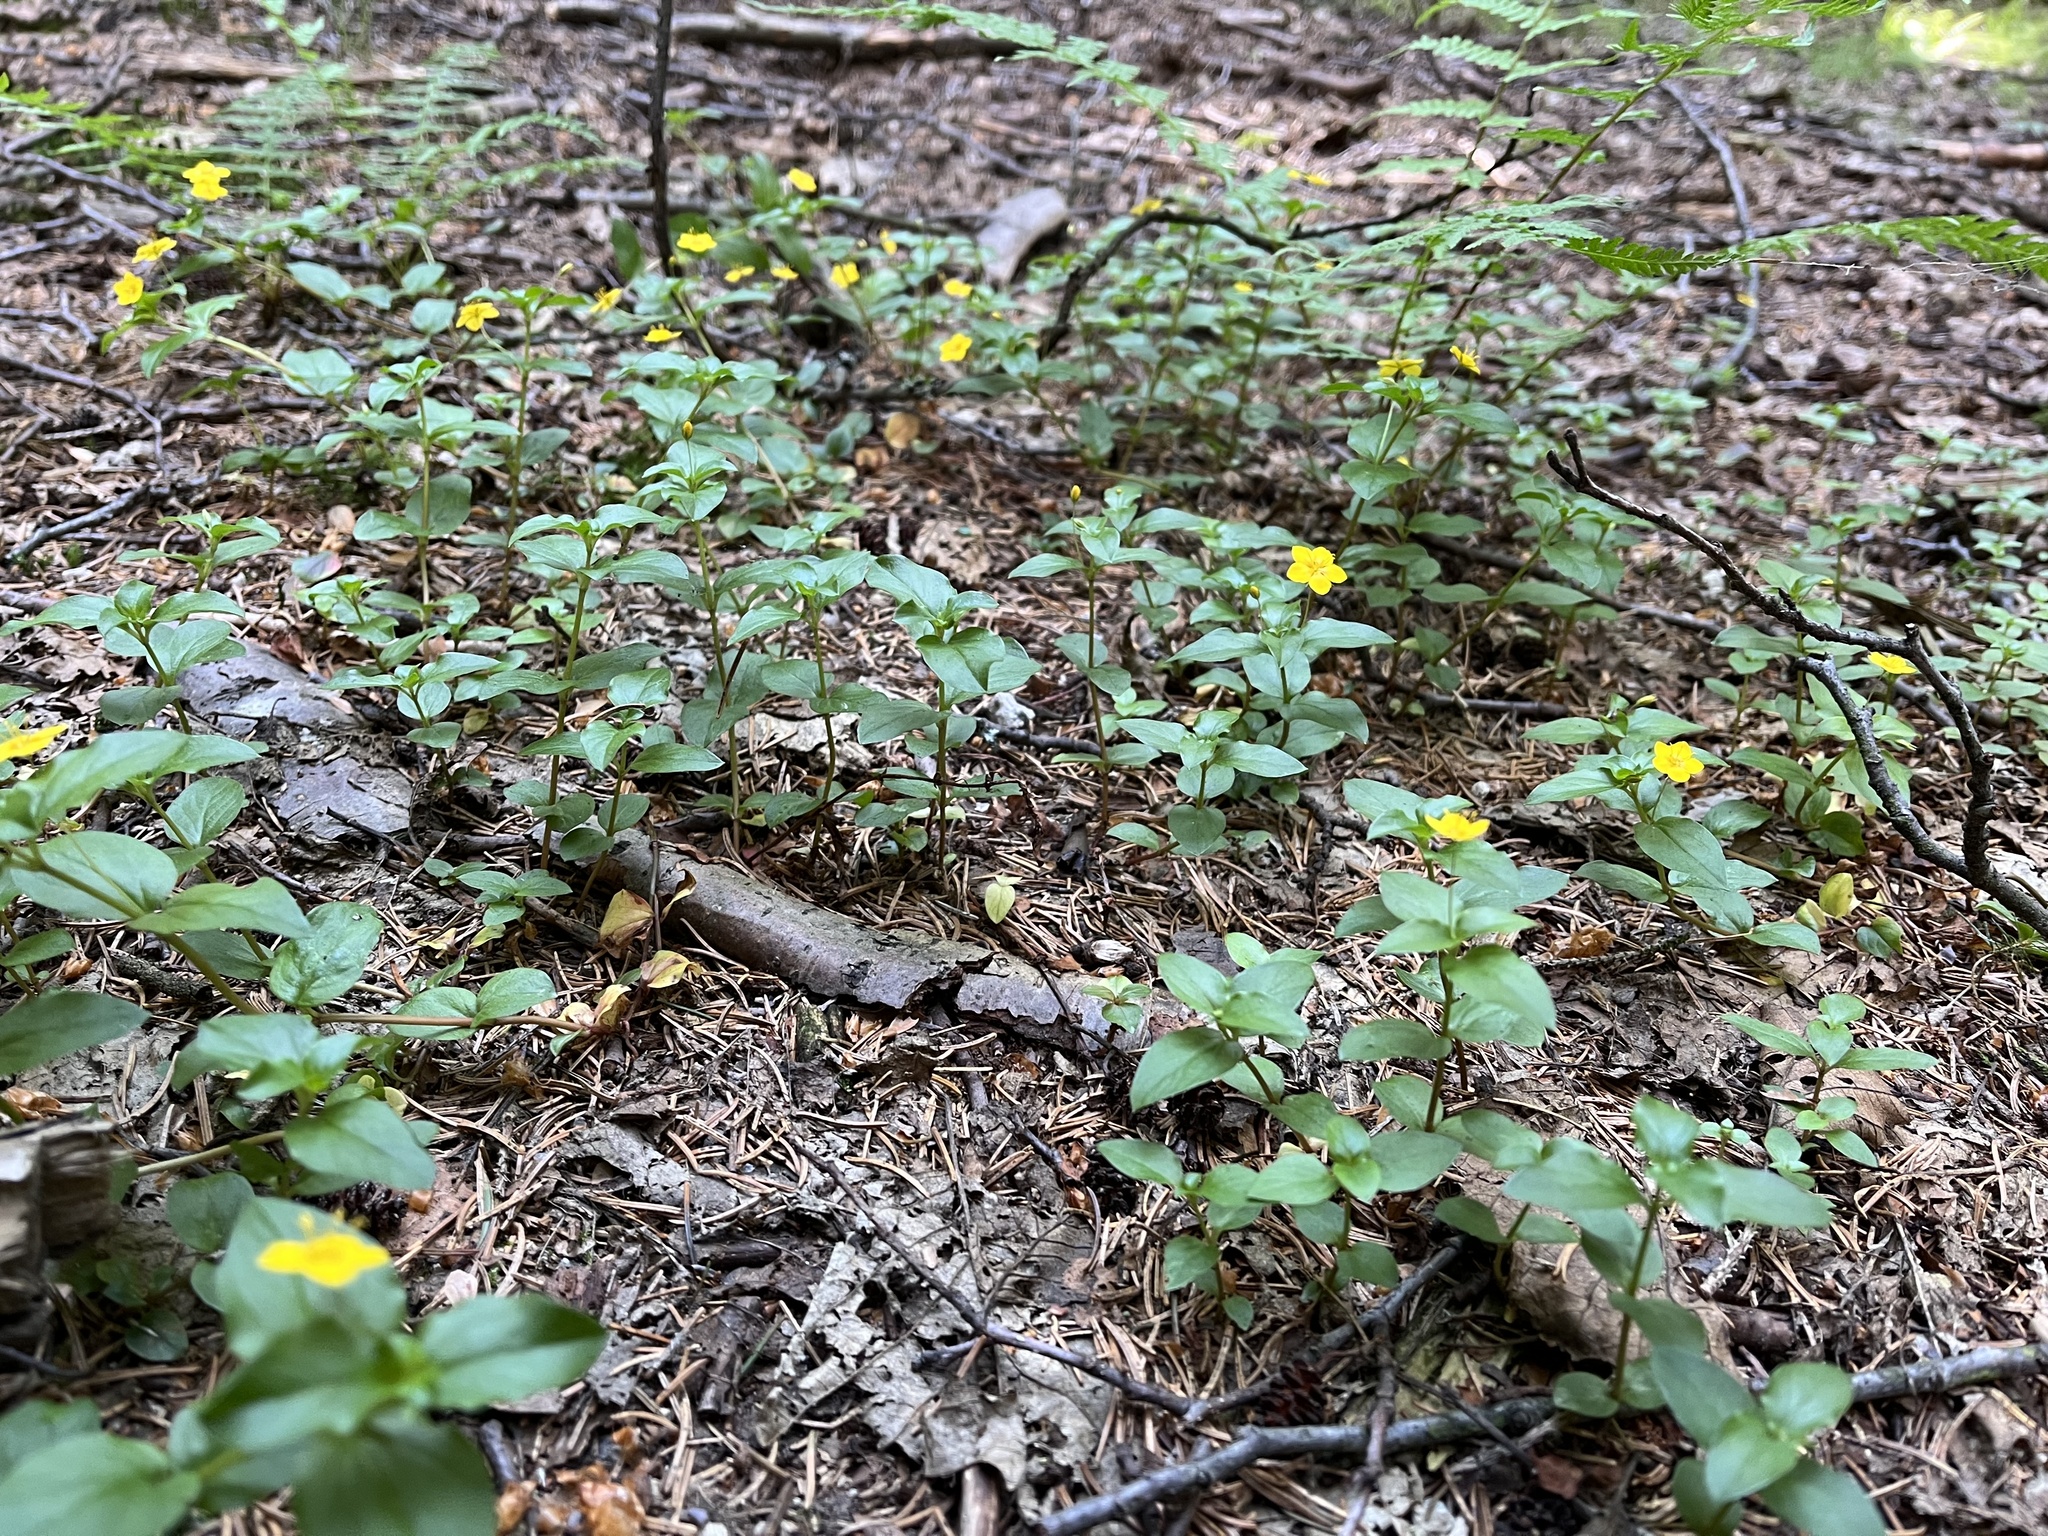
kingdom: Plantae
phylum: Tracheophyta
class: Magnoliopsida
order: Ericales
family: Primulaceae
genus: Lysimachia
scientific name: Lysimachia nemorum
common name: Yellow pimpernel
